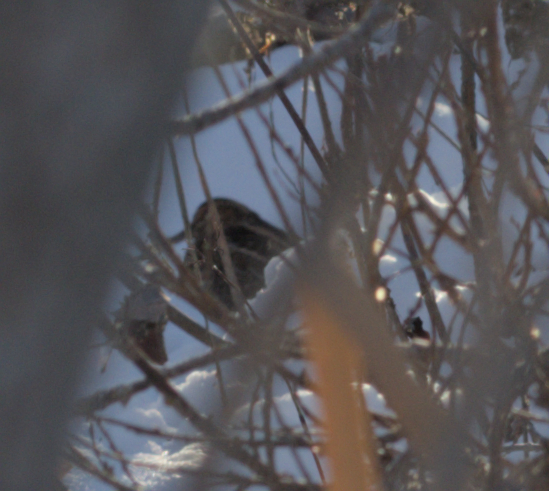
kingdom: Animalia
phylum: Chordata
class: Aves
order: Charadriiformes
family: Scolopacidae
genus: Gallinago
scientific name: Gallinago delicata
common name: Wilson's snipe
